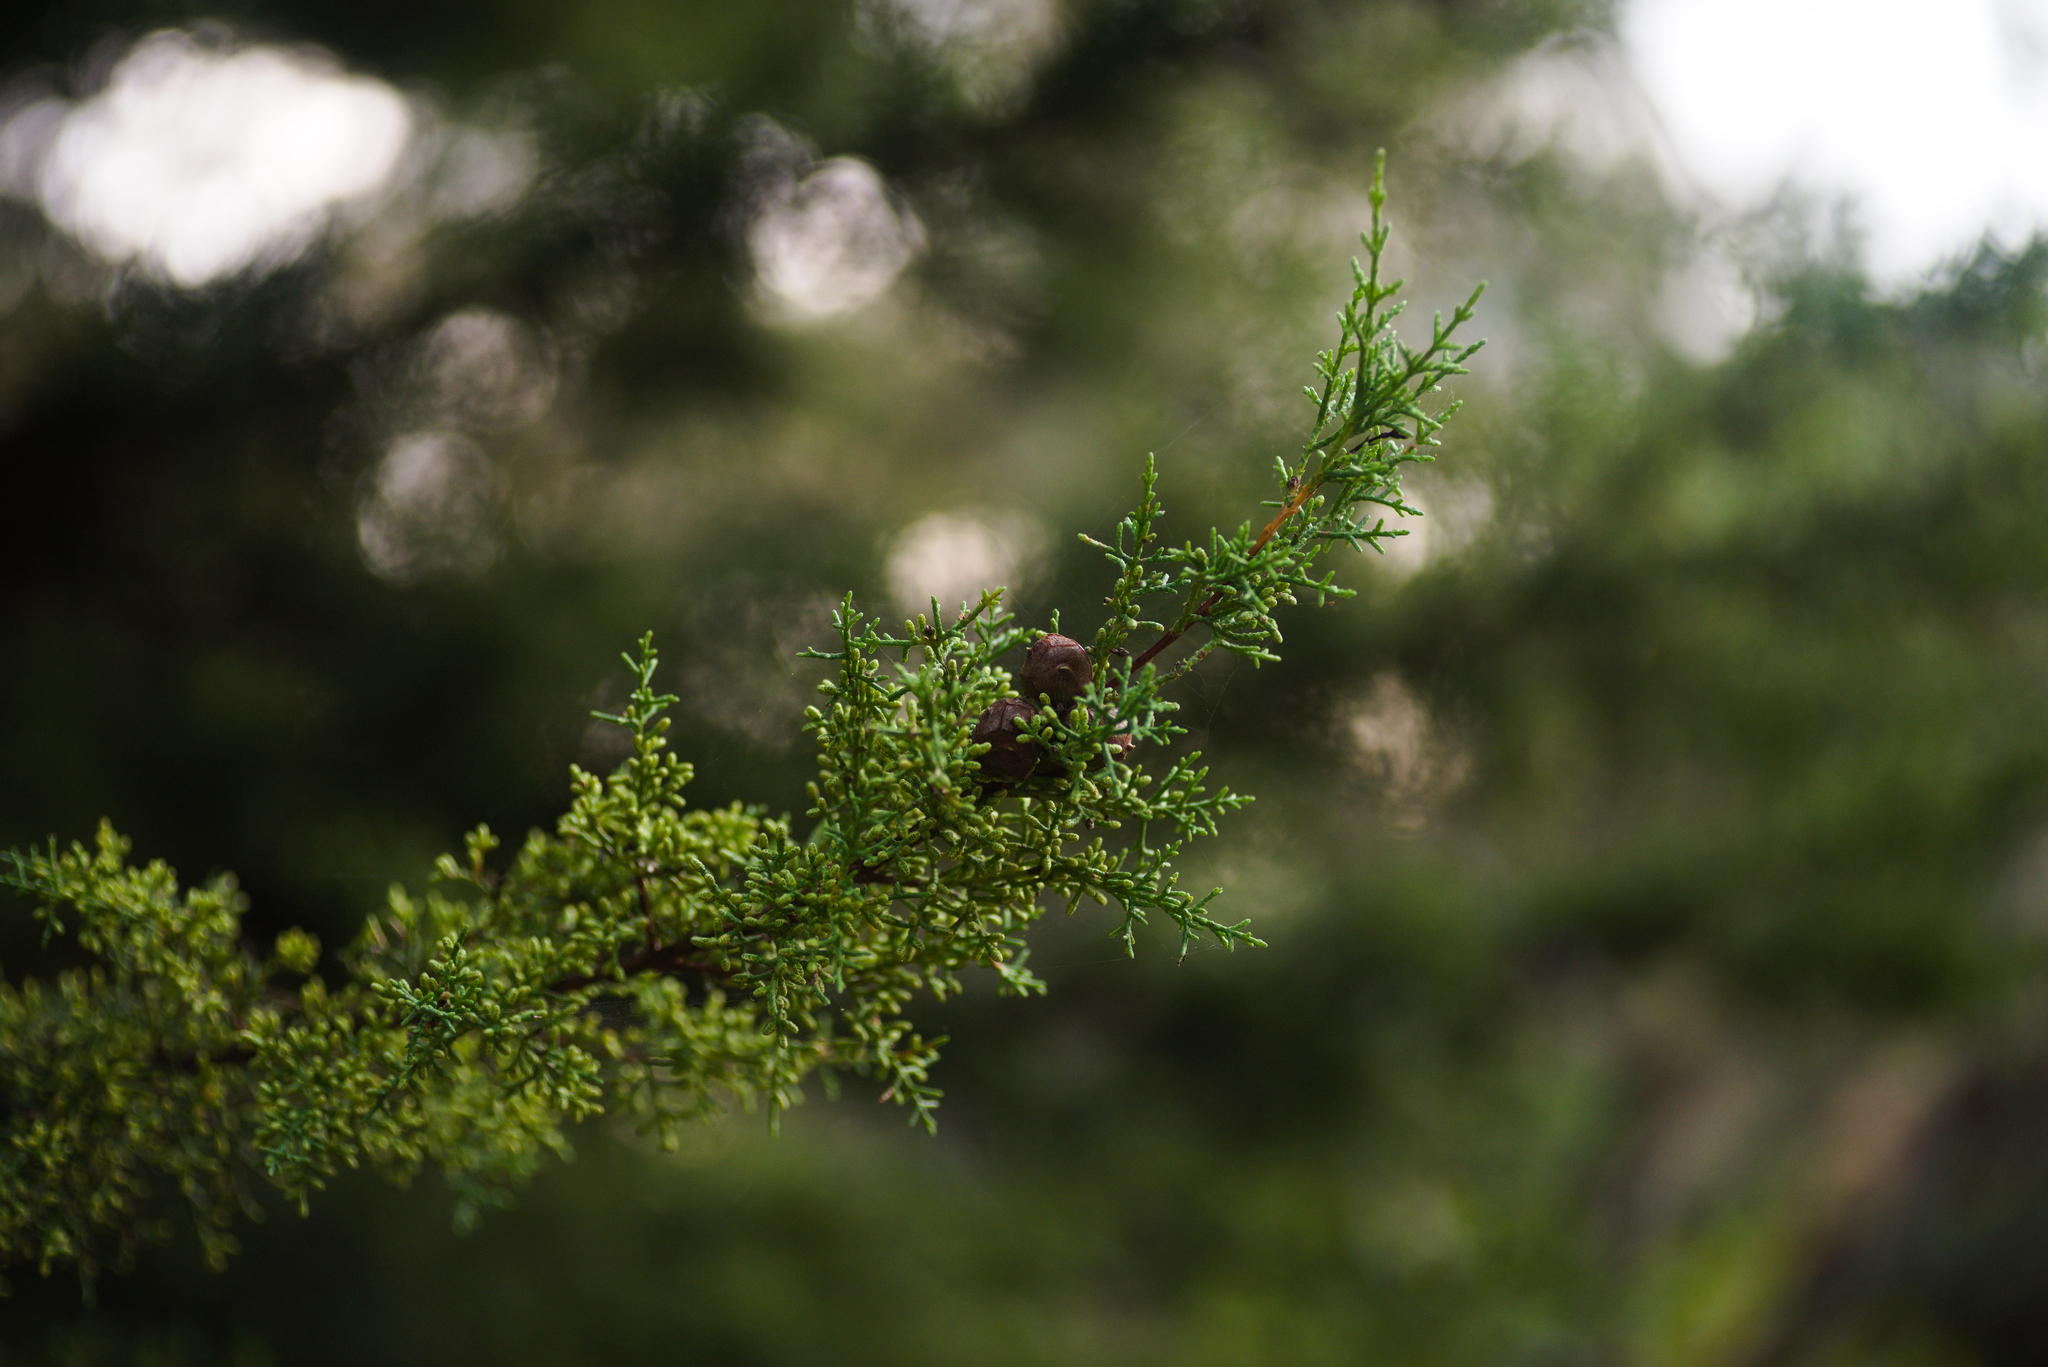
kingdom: Plantae
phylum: Tracheophyta
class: Pinopsida
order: Pinales
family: Cupressaceae
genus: Cupressus
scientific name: Cupressus goveniana
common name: Gowen cypress
